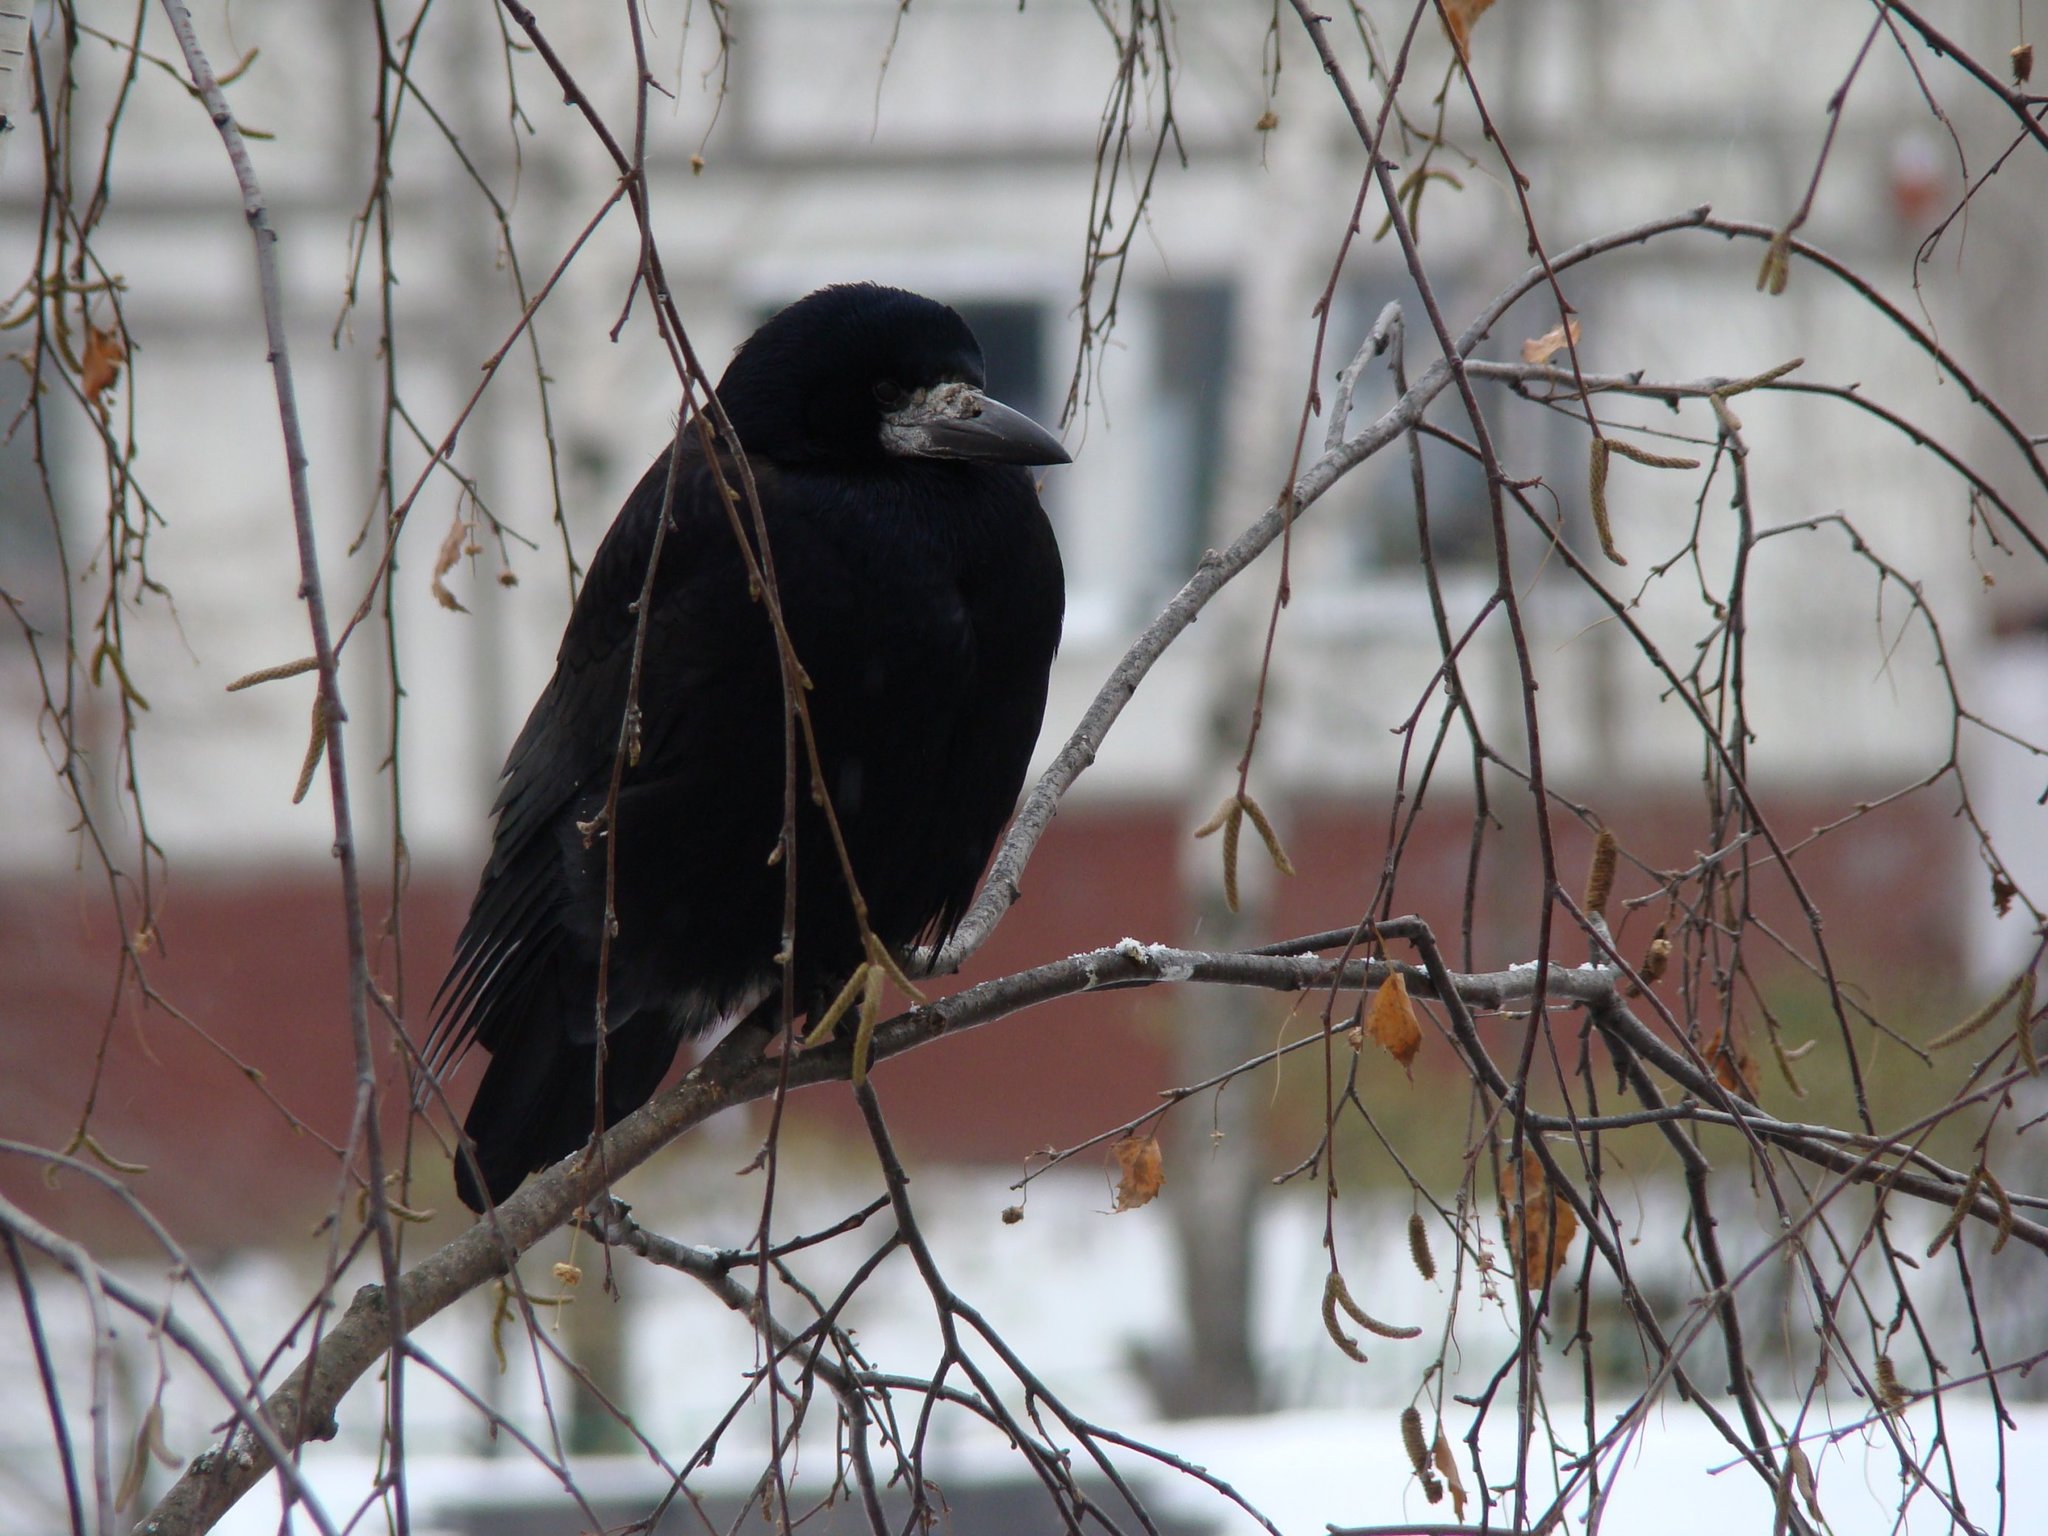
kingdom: Animalia
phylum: Chordata
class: Aves
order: Passeriformes
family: Corvidae
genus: Corvus
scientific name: Corvus frugilegus
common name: Rook
